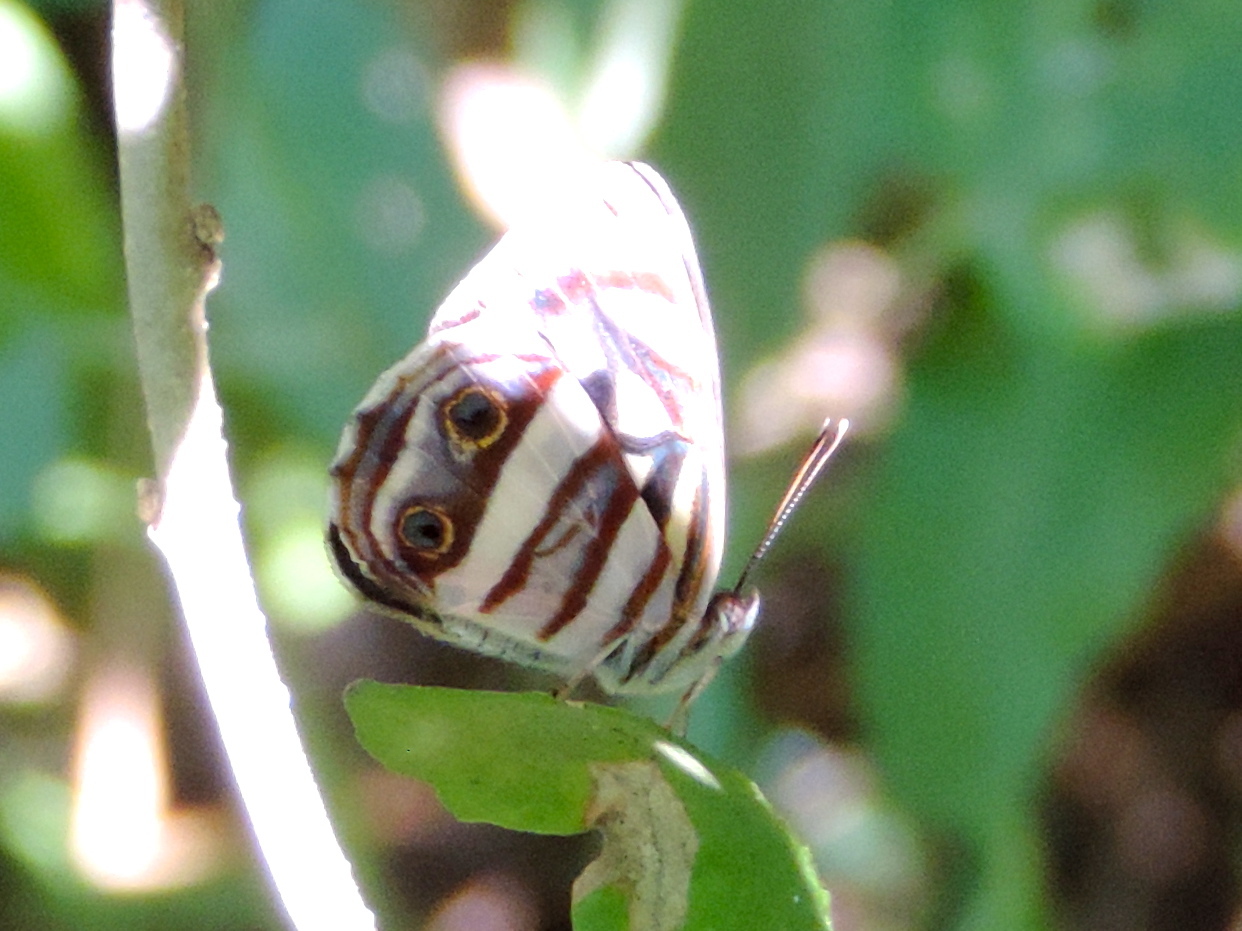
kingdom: Plantae
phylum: Tracheophyta
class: Magnoliopsida
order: Rosales
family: Rhamnaceae
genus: Sarcomphalus
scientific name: Sarcomphalus amole
